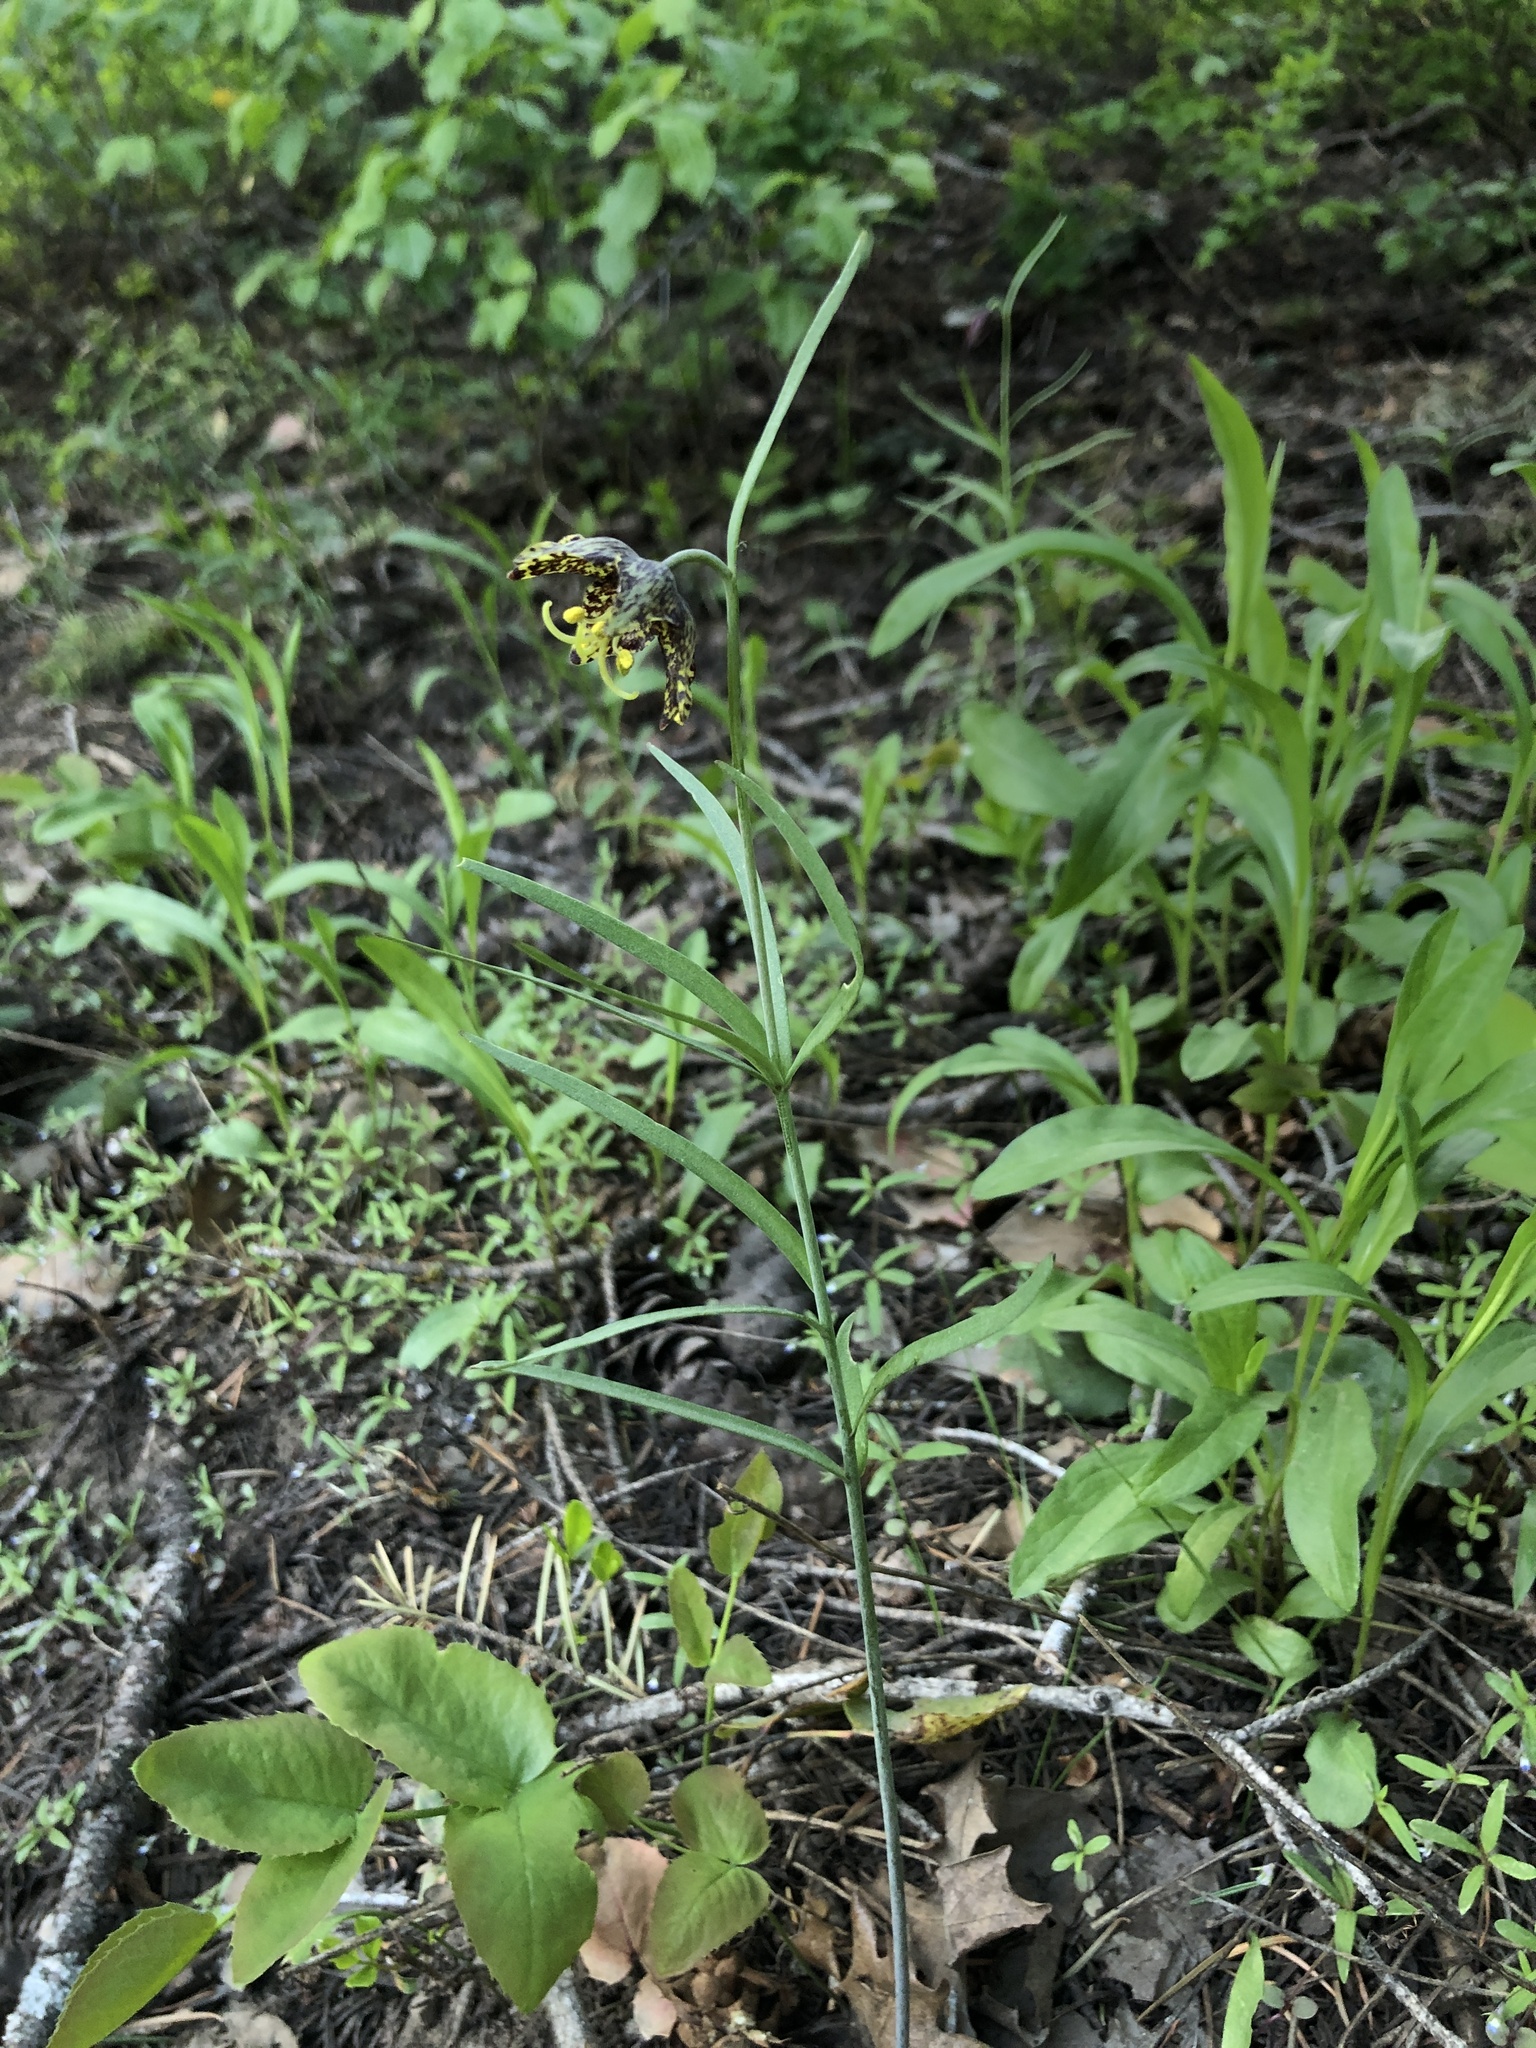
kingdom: Plantae
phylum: Tracheophyta
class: Liliopsida
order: Liliales
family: Liliaceae
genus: Fritillaria
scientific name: Fritillaria atropurpurea
